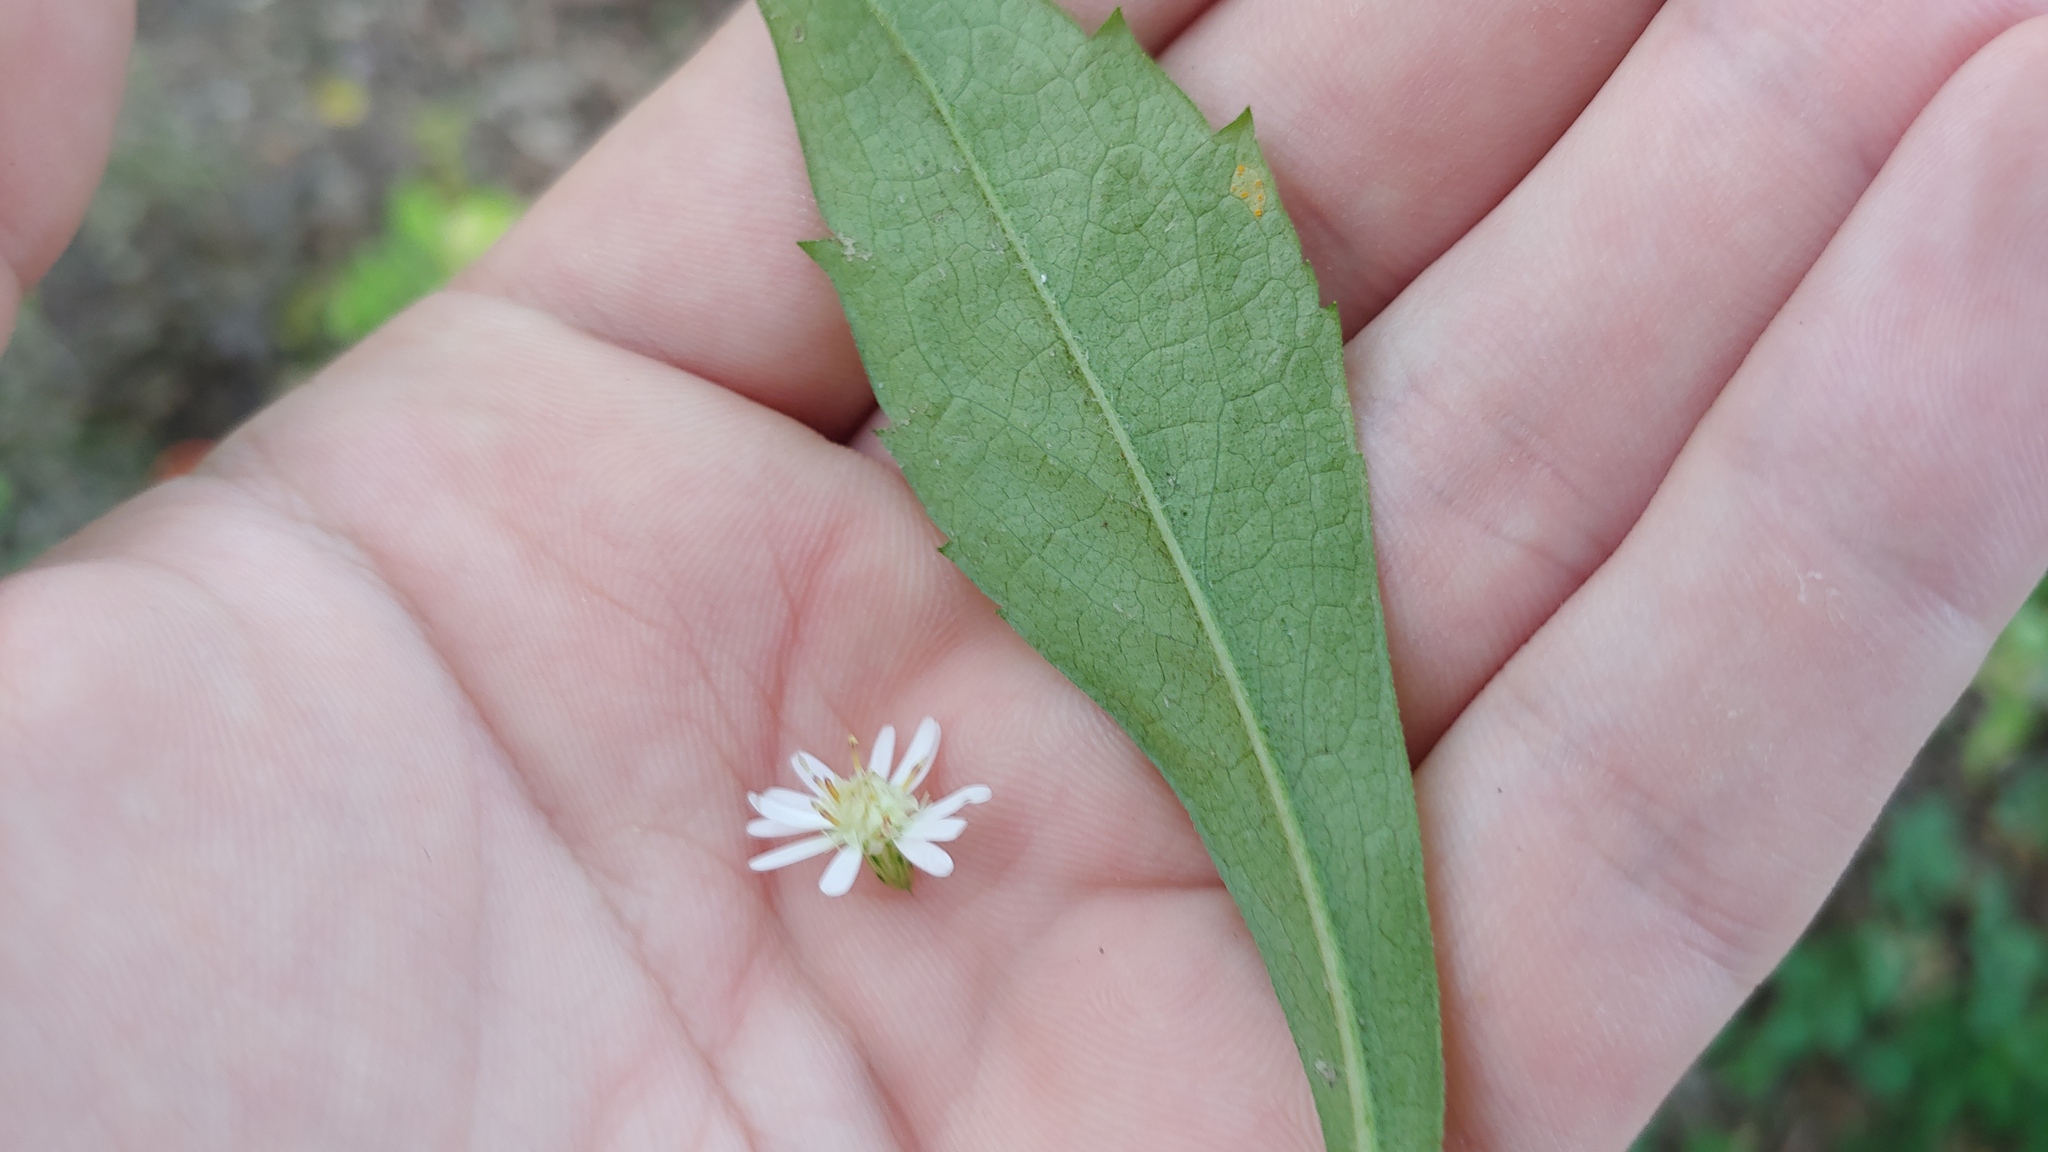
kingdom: Plantae
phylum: Tracheophyta
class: Magnoliopsida
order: Asterales
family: Asteraceae
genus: Symphyotrichum
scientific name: Symphyotrichum lateriflorum
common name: Calico aster
